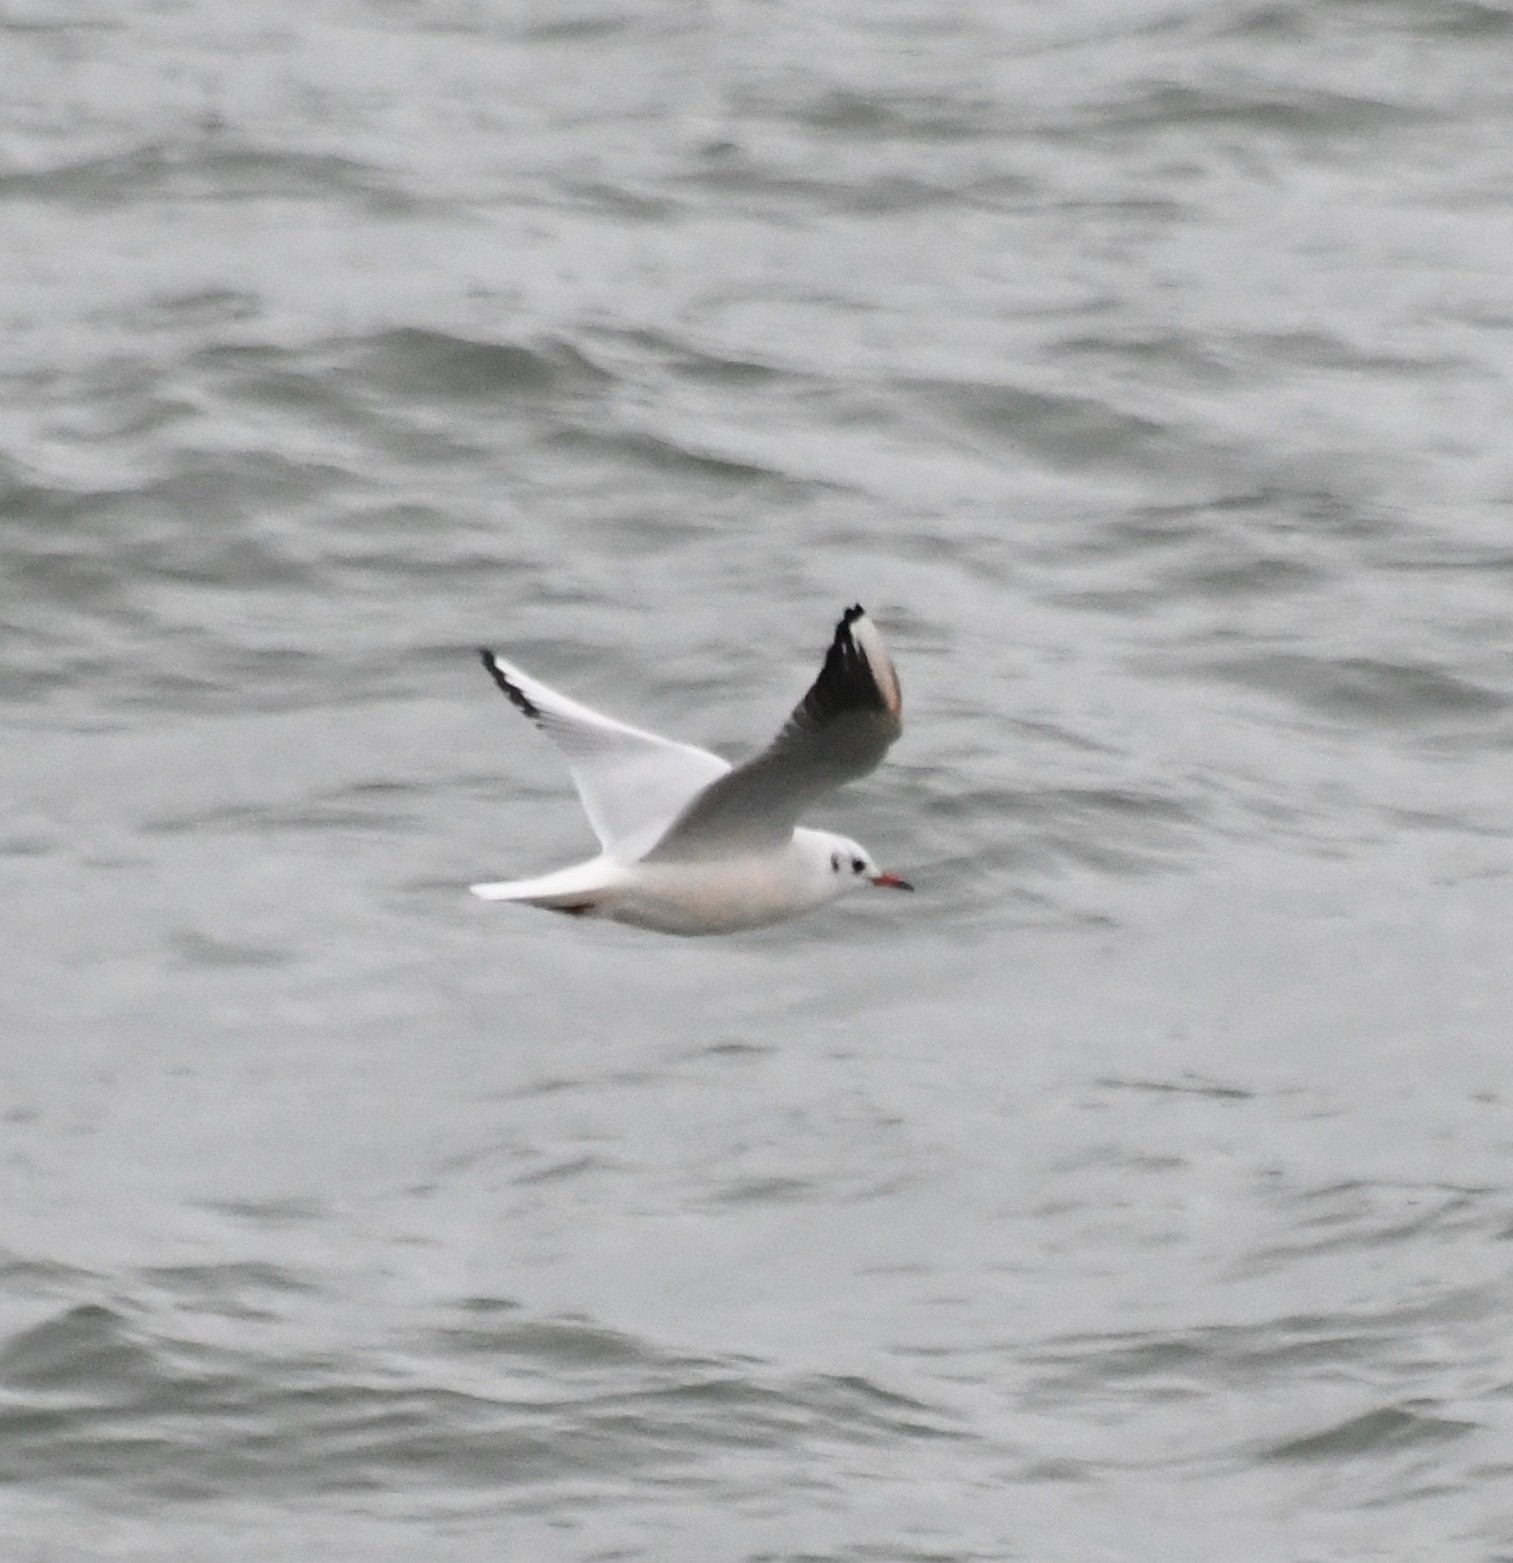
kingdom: Animalia
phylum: Chordata
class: Aves
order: Charadriiformes
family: Laridae
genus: Chroicocephalus
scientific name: Chroicocephalus ridibundus
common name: Black-headed gull
